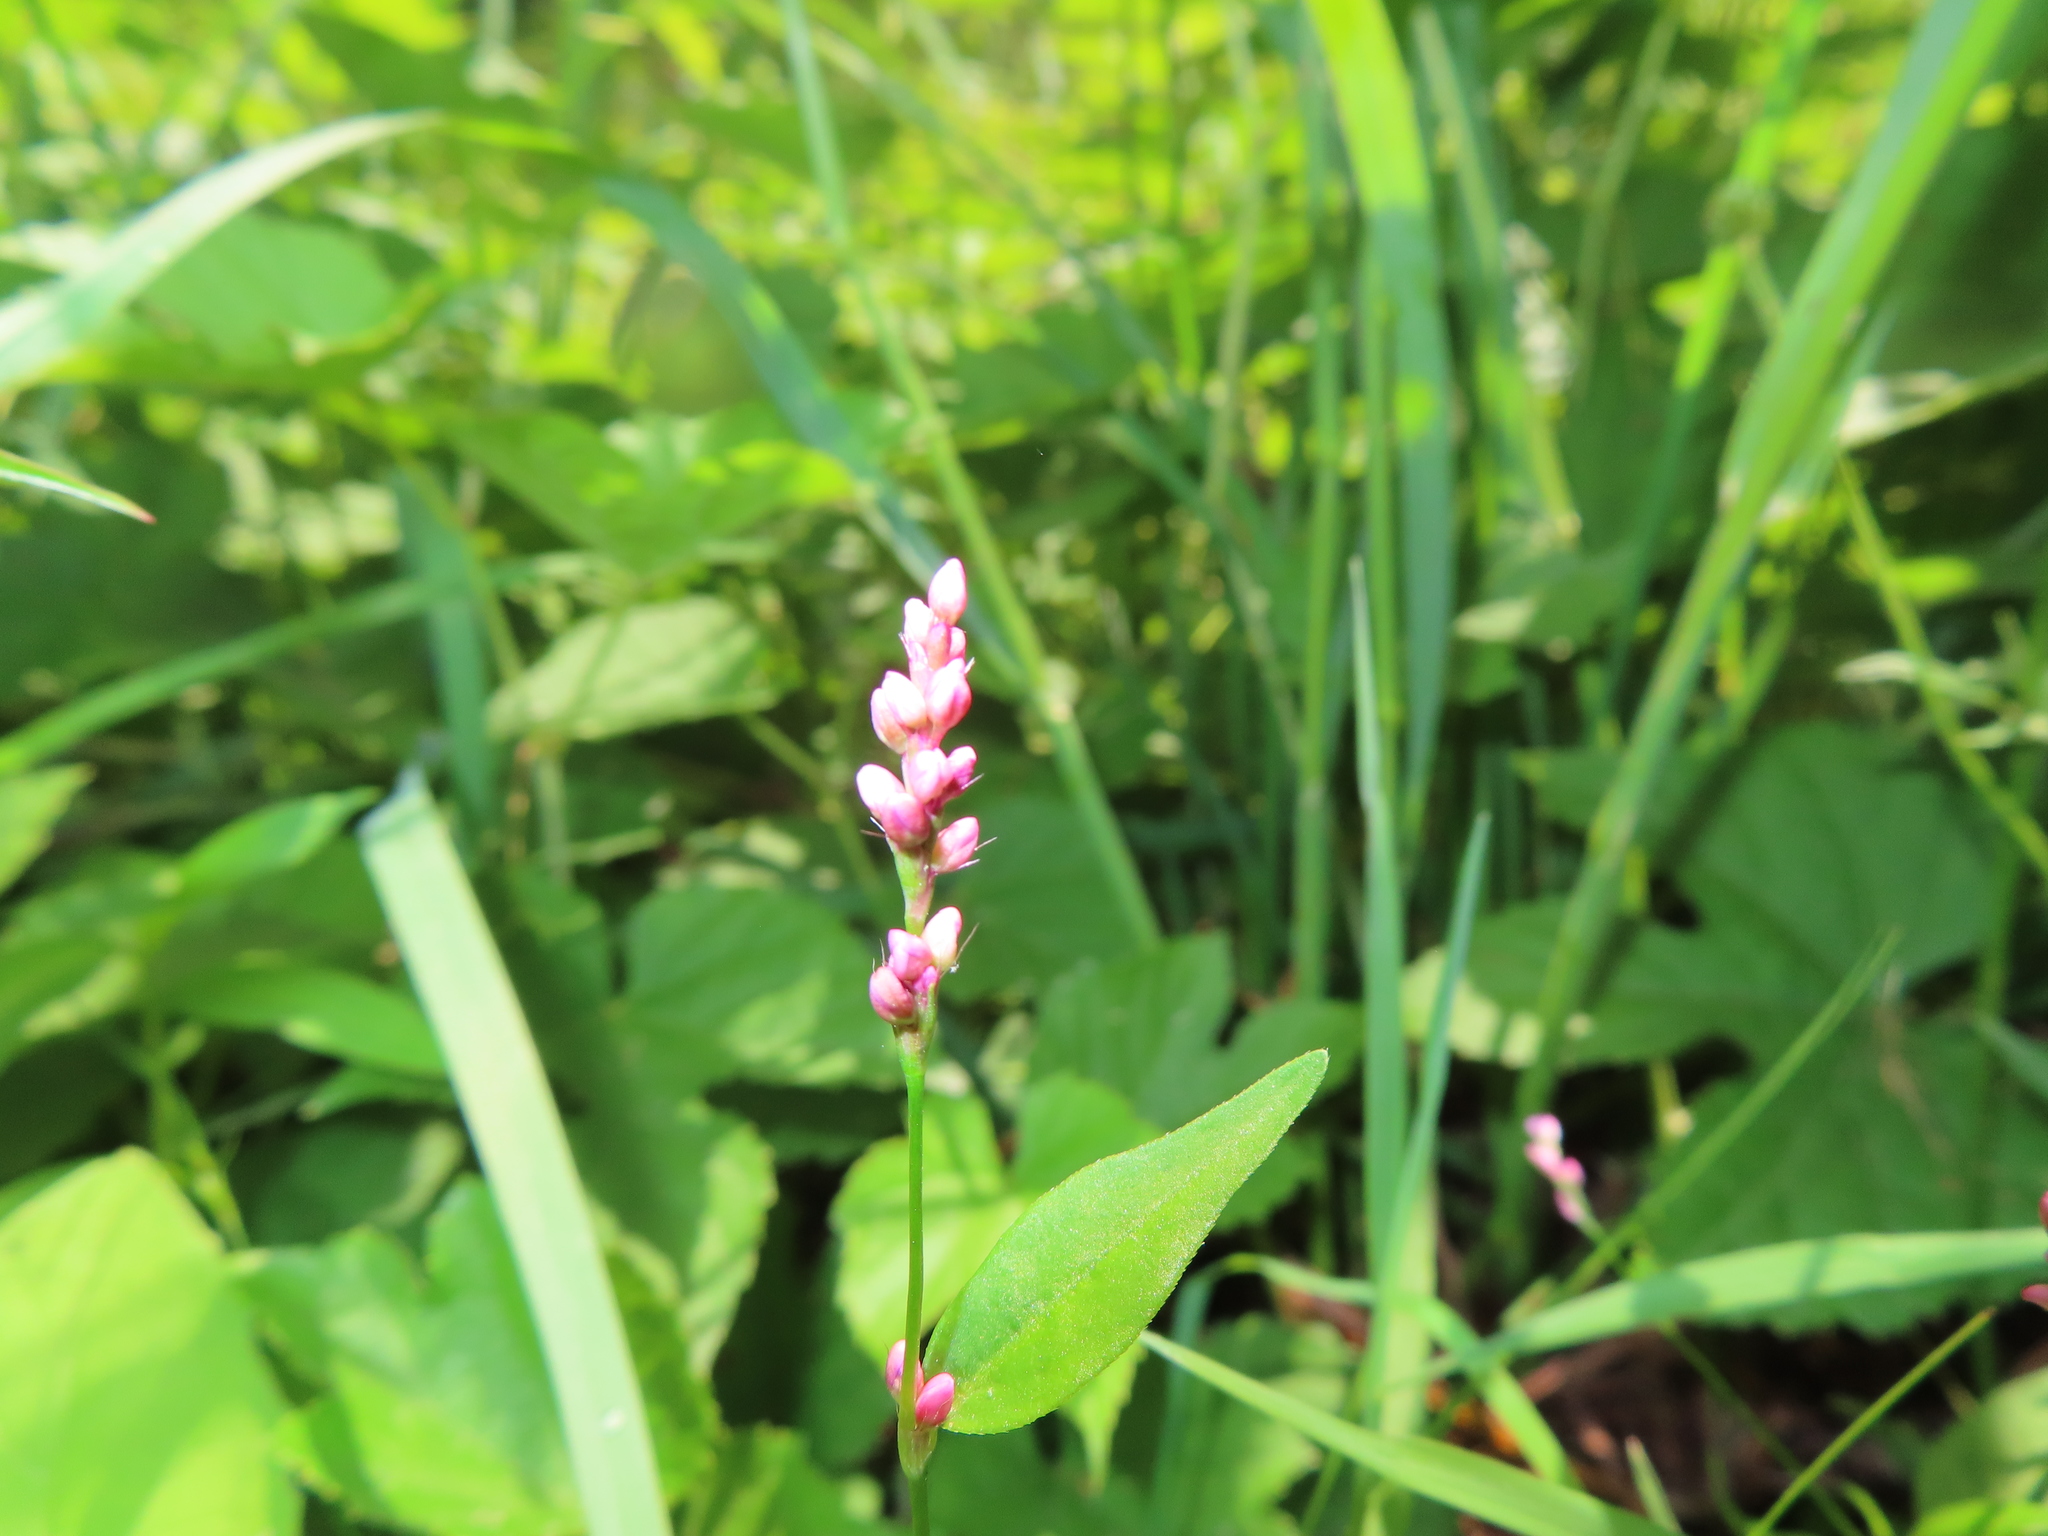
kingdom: Plantae
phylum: Tracheophyta
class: Magnoliopsida
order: Caryophyllales
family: Polygonaceae
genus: Persicaria
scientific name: Persicaria longiseta
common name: Bristly lady's-thumb
